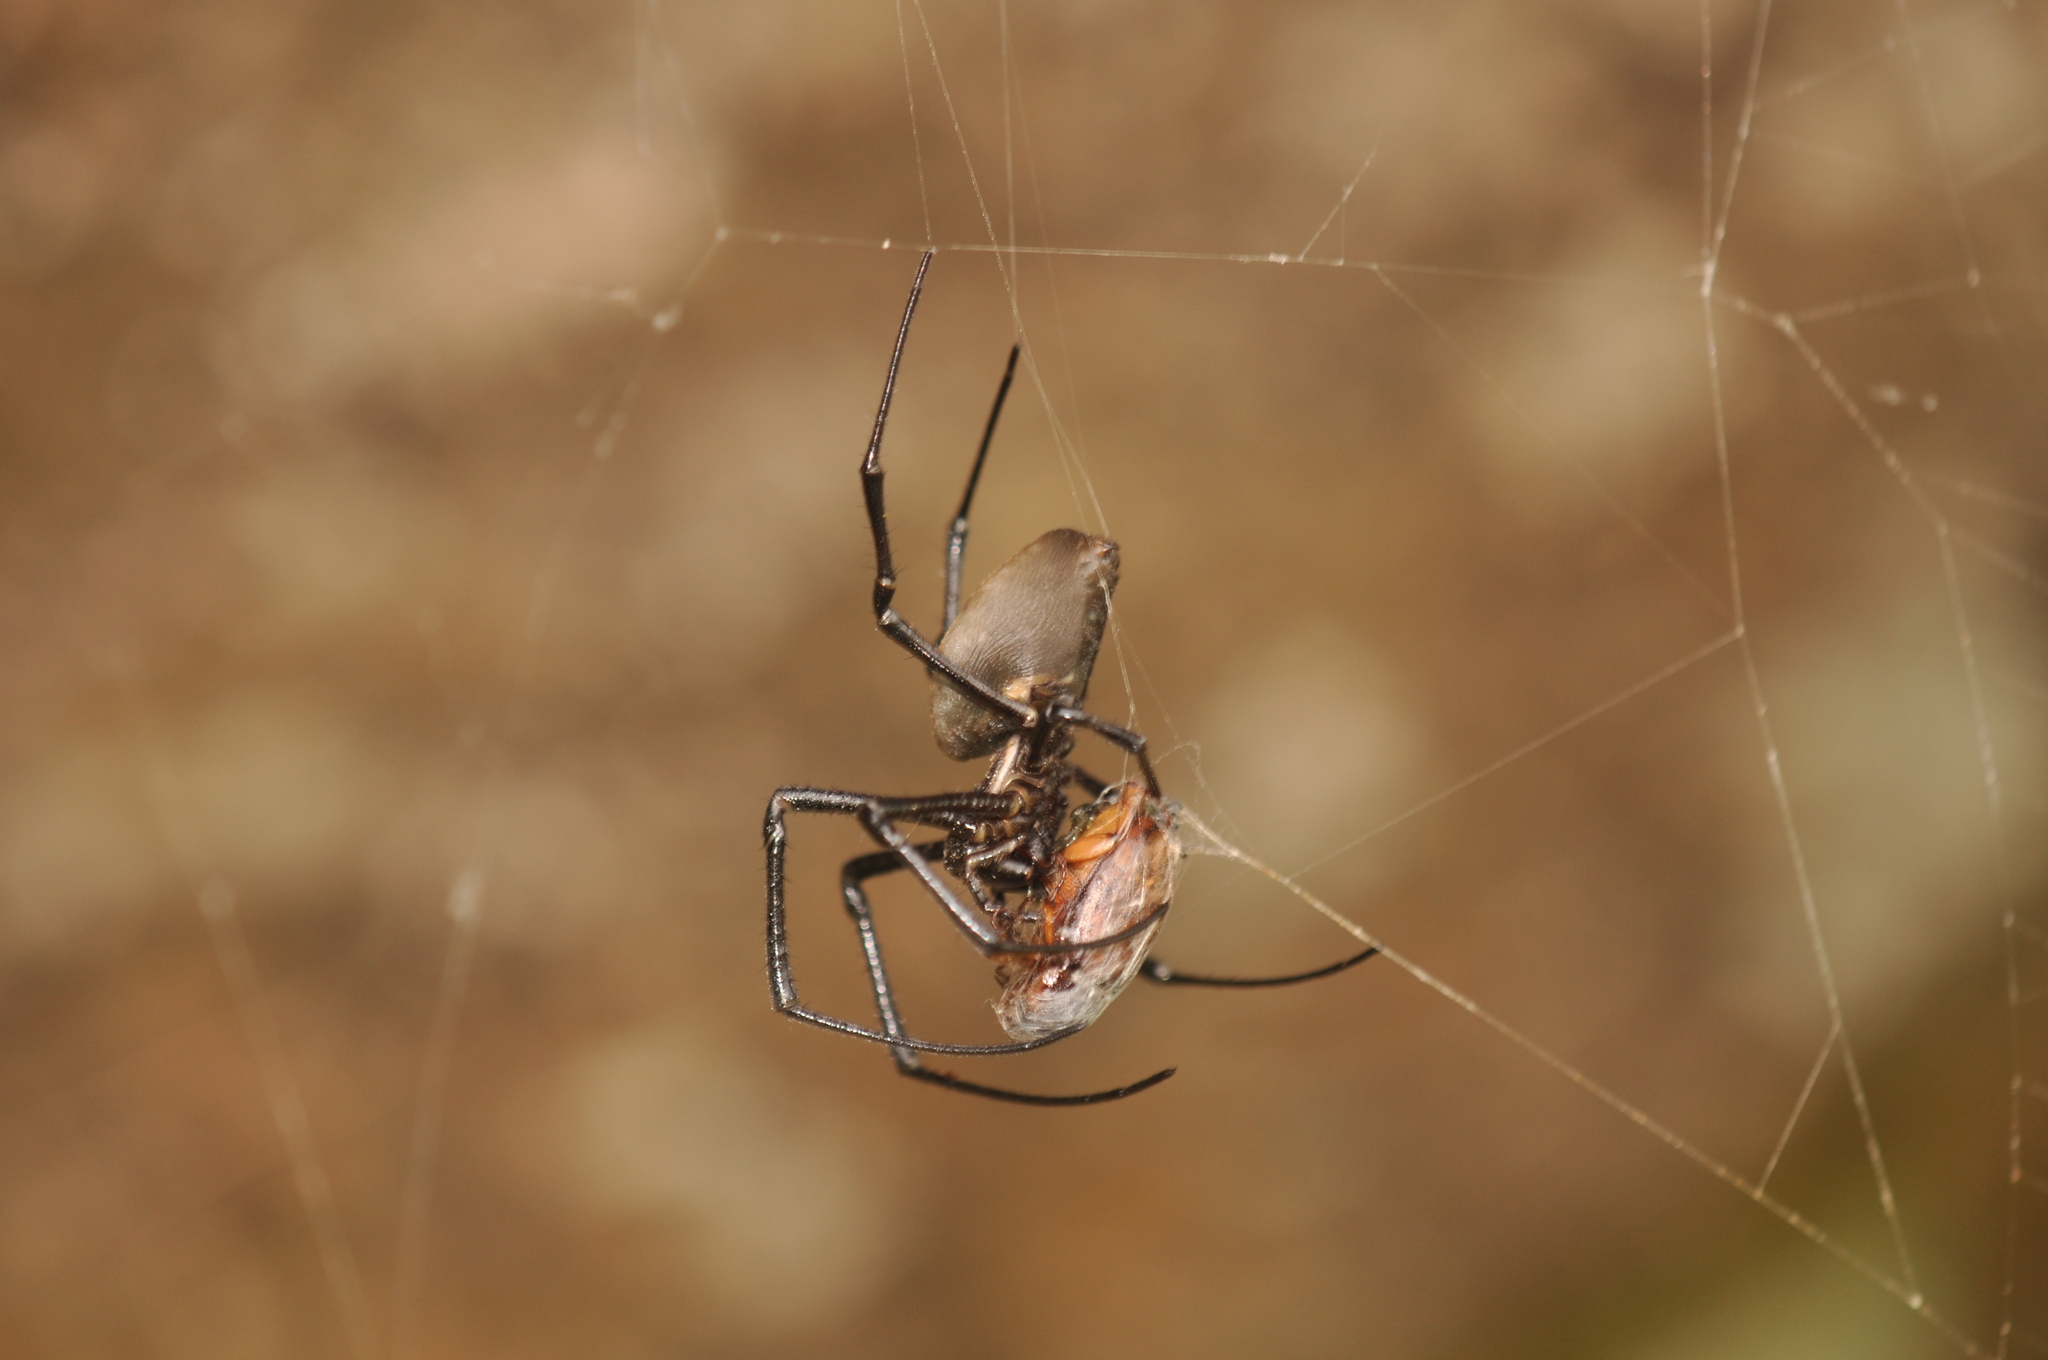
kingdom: Animalia
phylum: Arthropoda
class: Arachnida
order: Araneae
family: Araneidae
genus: Nephilingis
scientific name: Nephilingis livida
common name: Madagascar hermit spider
